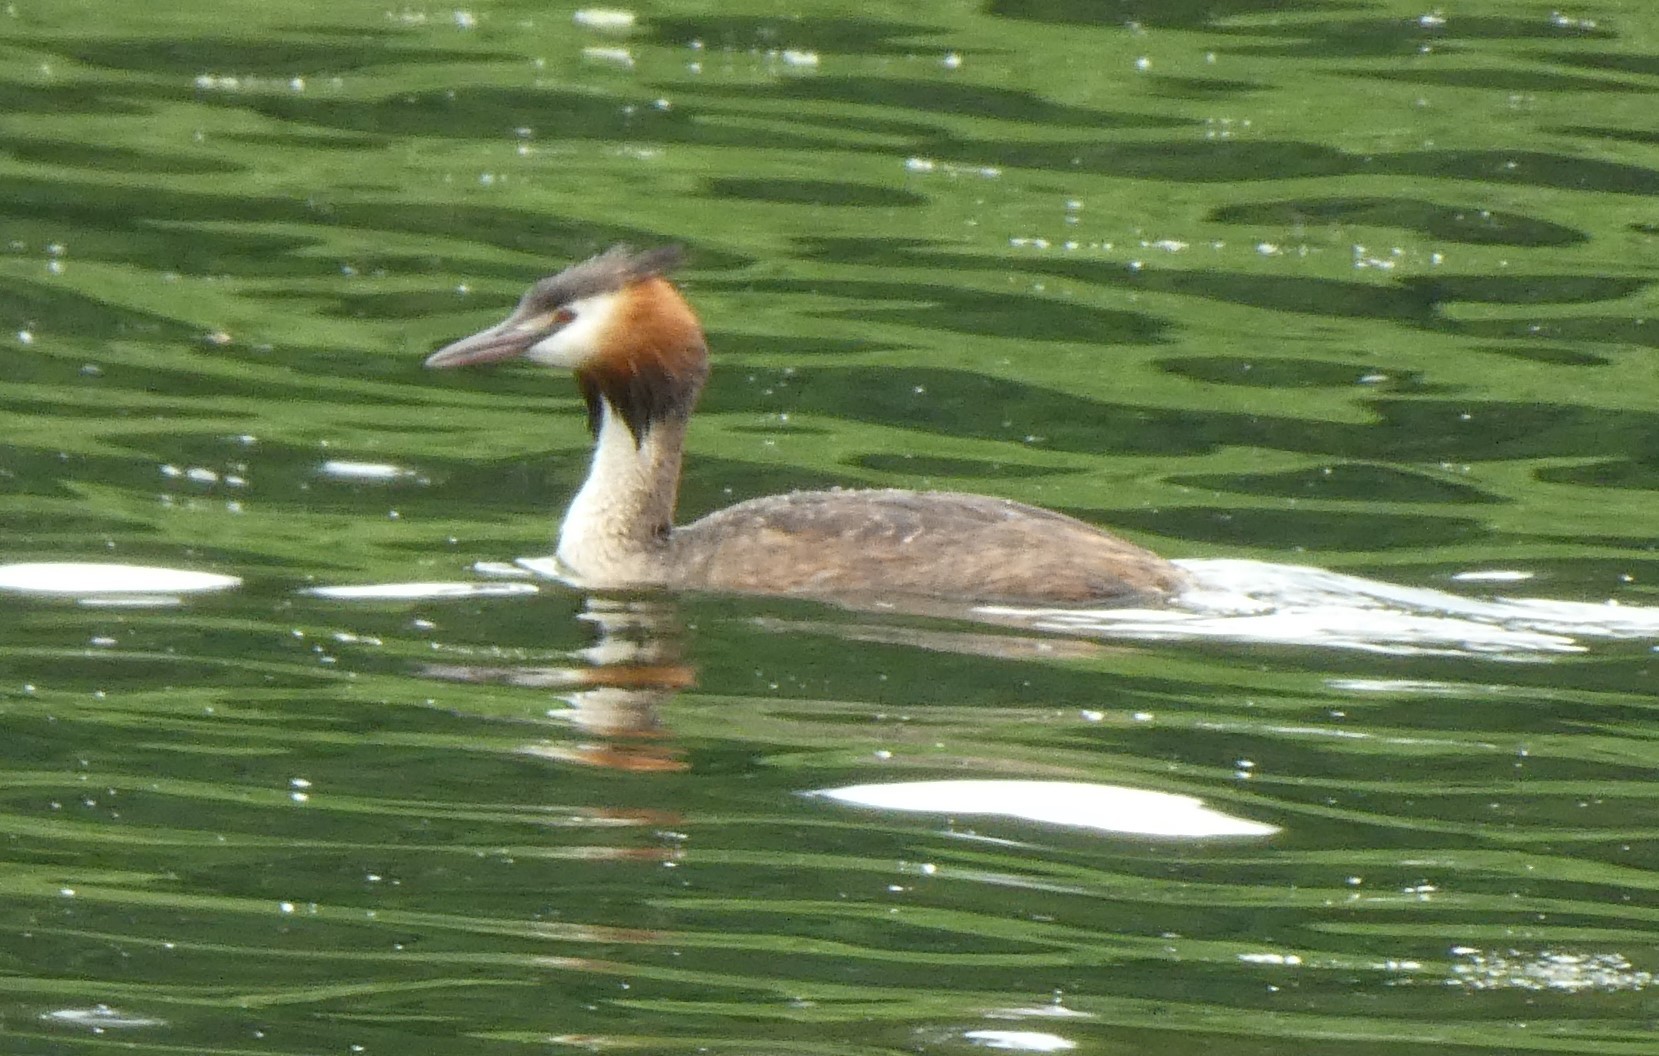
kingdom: Animalia
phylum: Chordata
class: Aves
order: Podicipediformes
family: Podicipedidae
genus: Podiceps
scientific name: Podiceps cristatus
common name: Great crested grebe
